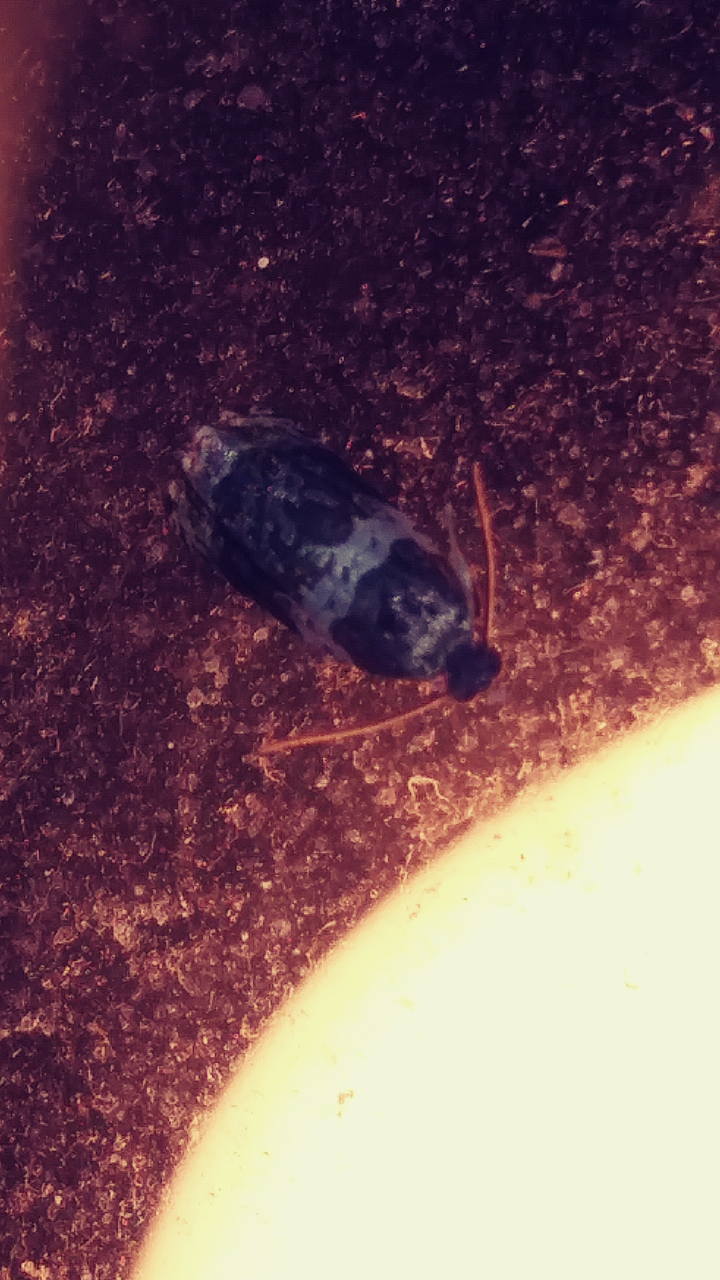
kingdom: Animalia
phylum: Arthropoda
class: Insecta
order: Lepidoptera
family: Tortricidae
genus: Olethreutes
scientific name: Olethreutes fasciatana
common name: Banded olethreutes moth
